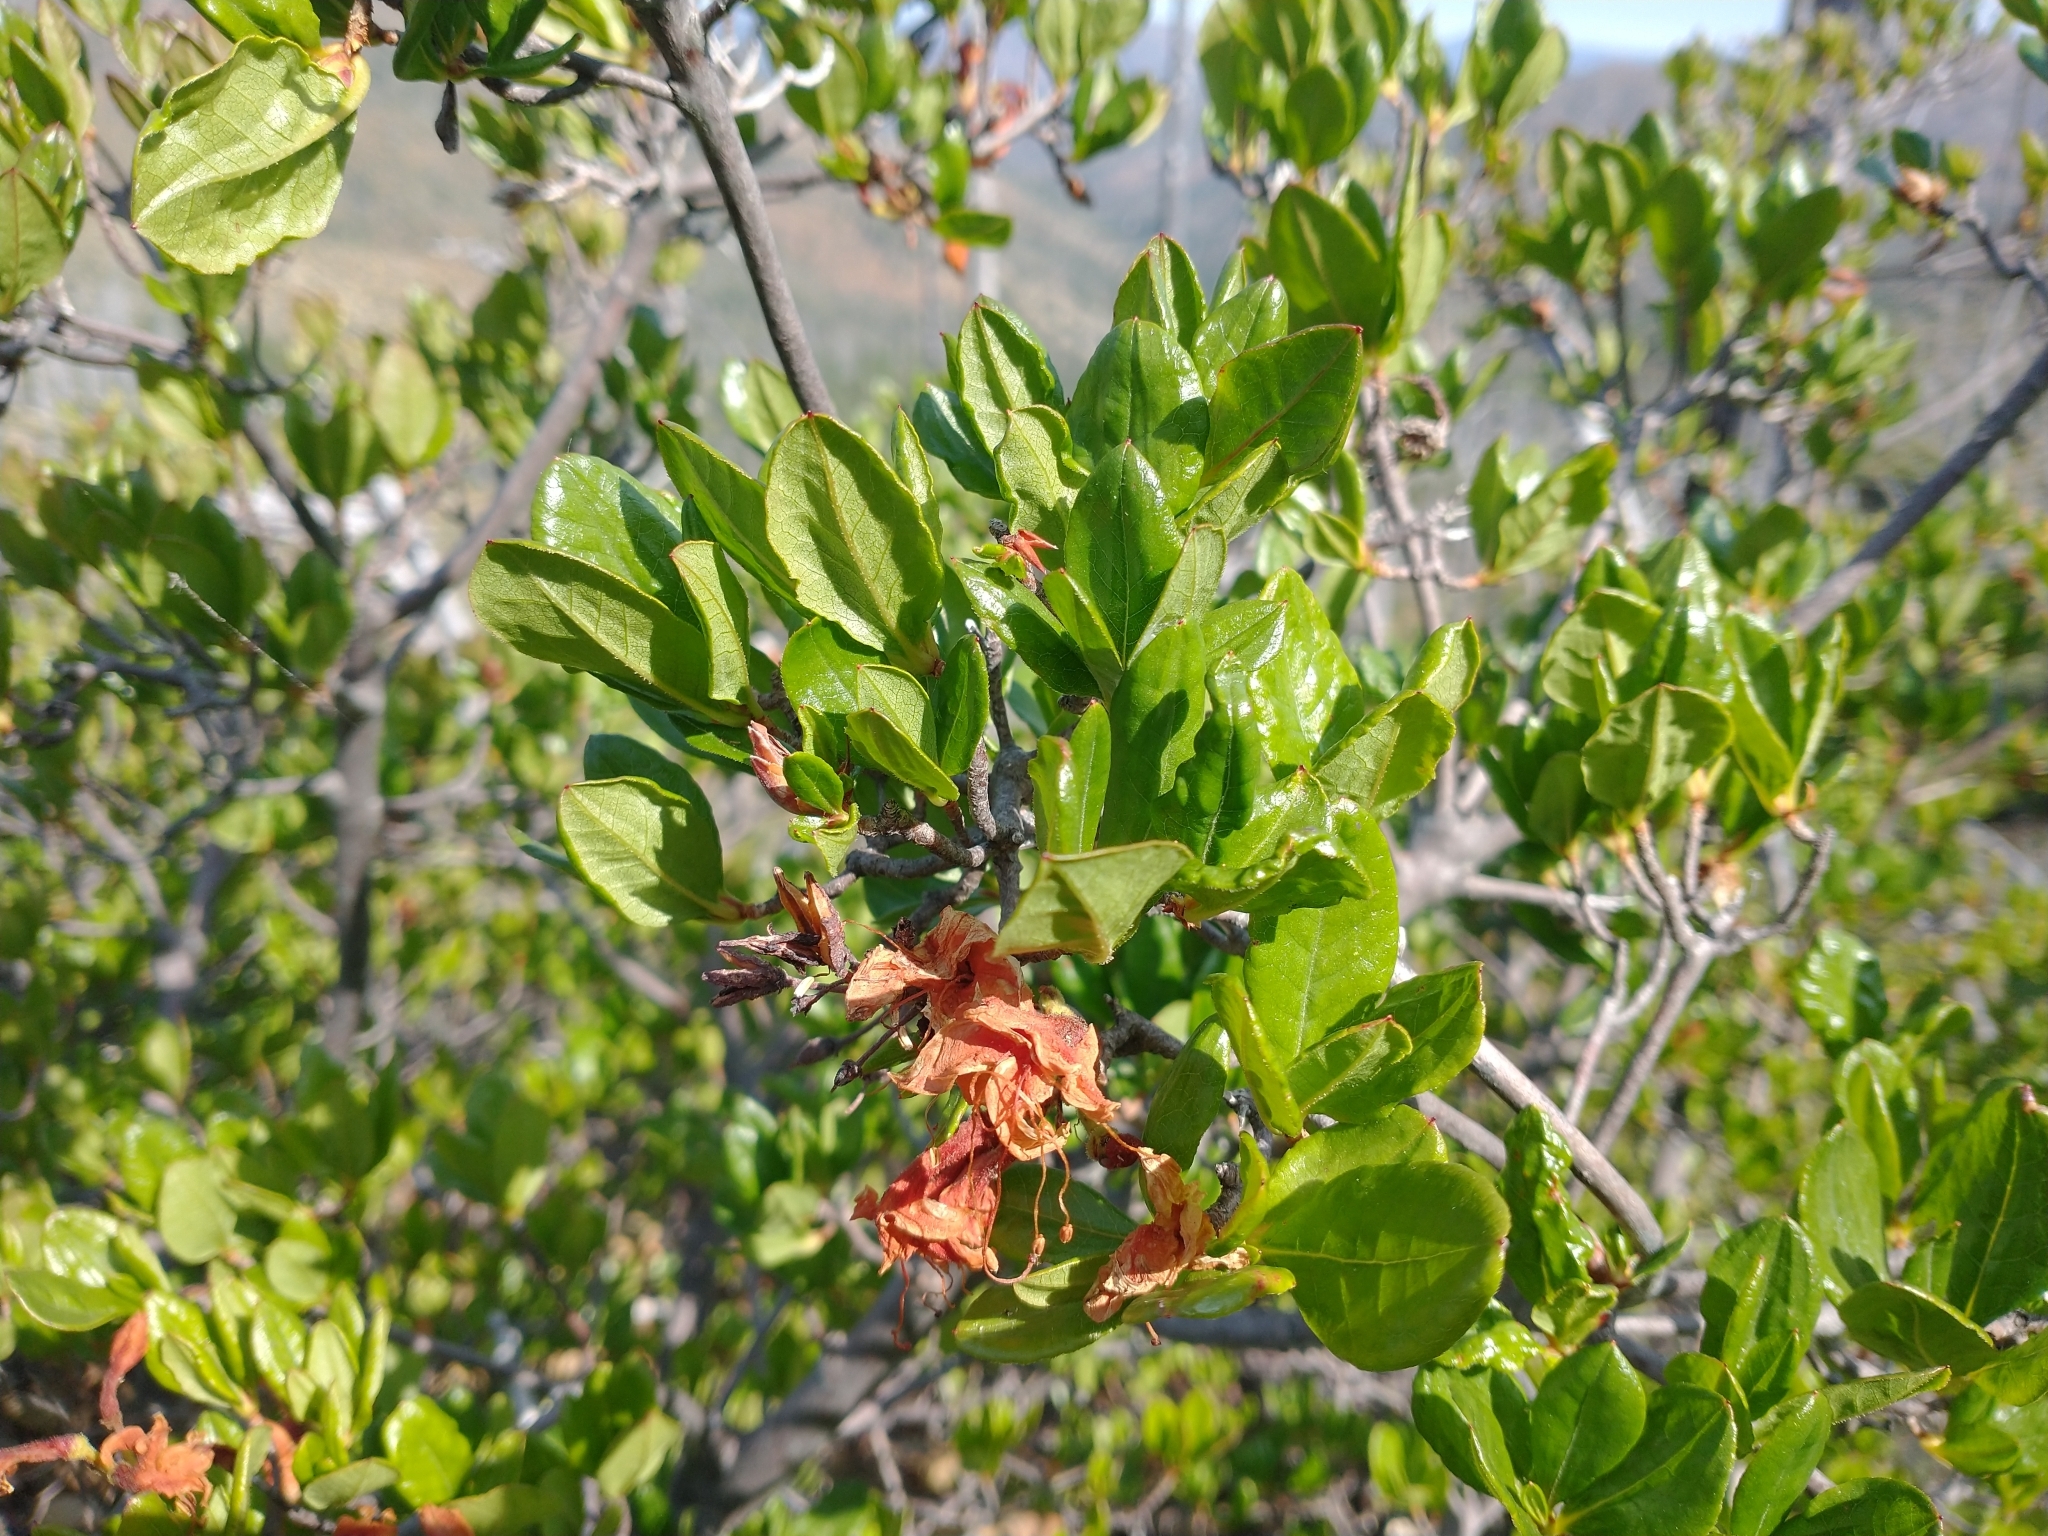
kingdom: Plantae
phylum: Tracheophyta
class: Magnoliopsida
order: Ericales
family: Ericaceae
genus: Rhododendron
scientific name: Rhododendron occidentale
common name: Western azalea
